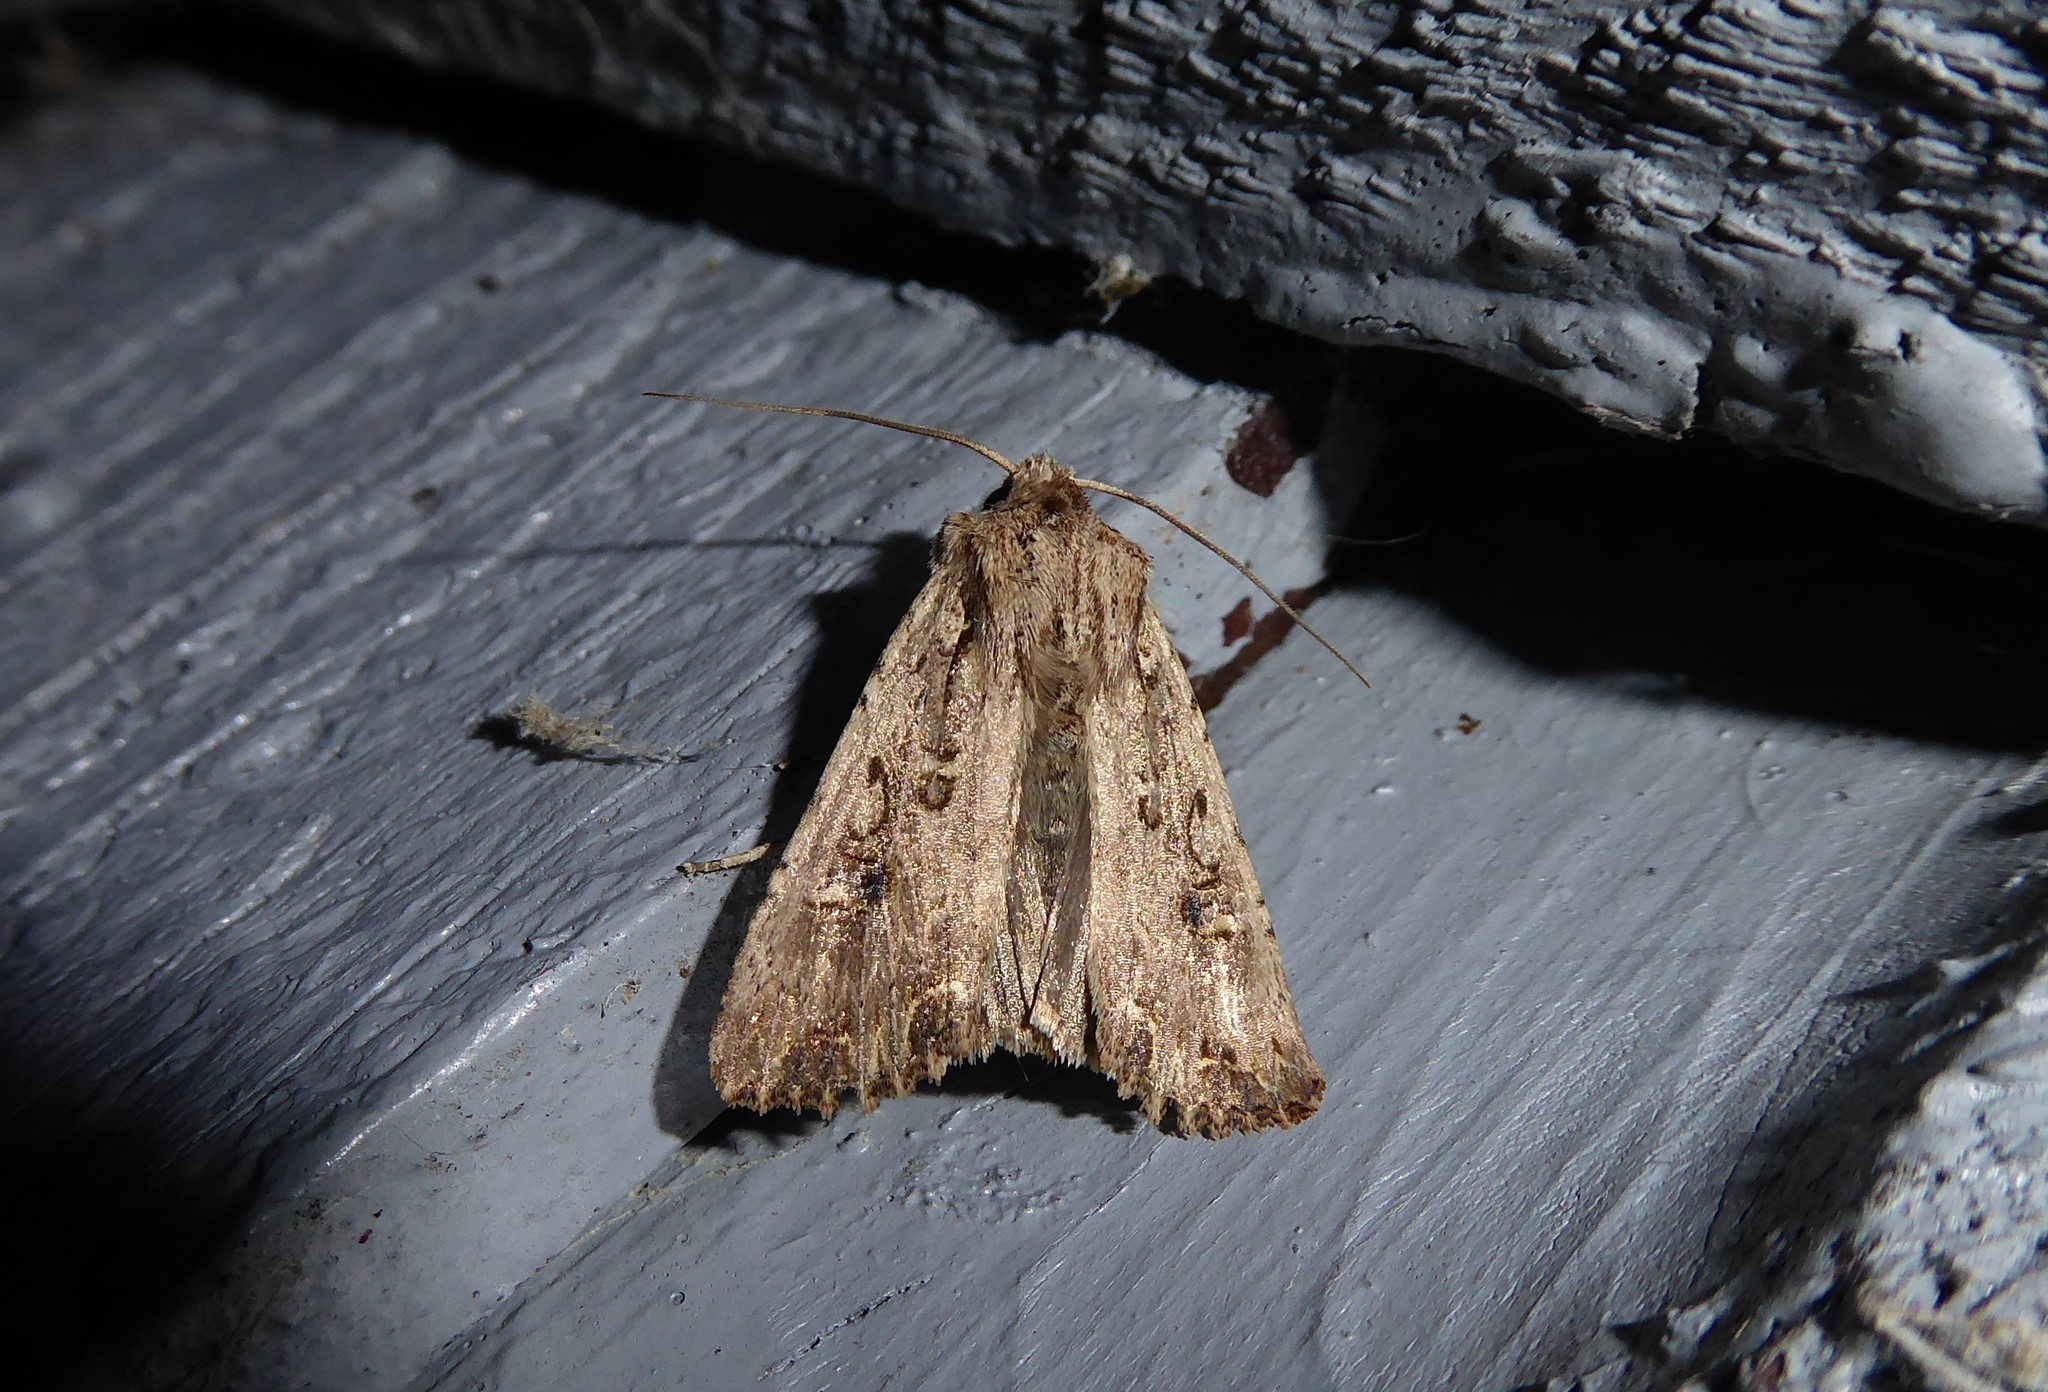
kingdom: Animalia
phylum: Arthropoda
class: Insecta
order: Lepidoptera
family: Noctuidae
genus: Ichneutica
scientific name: Ichneutica lignana
